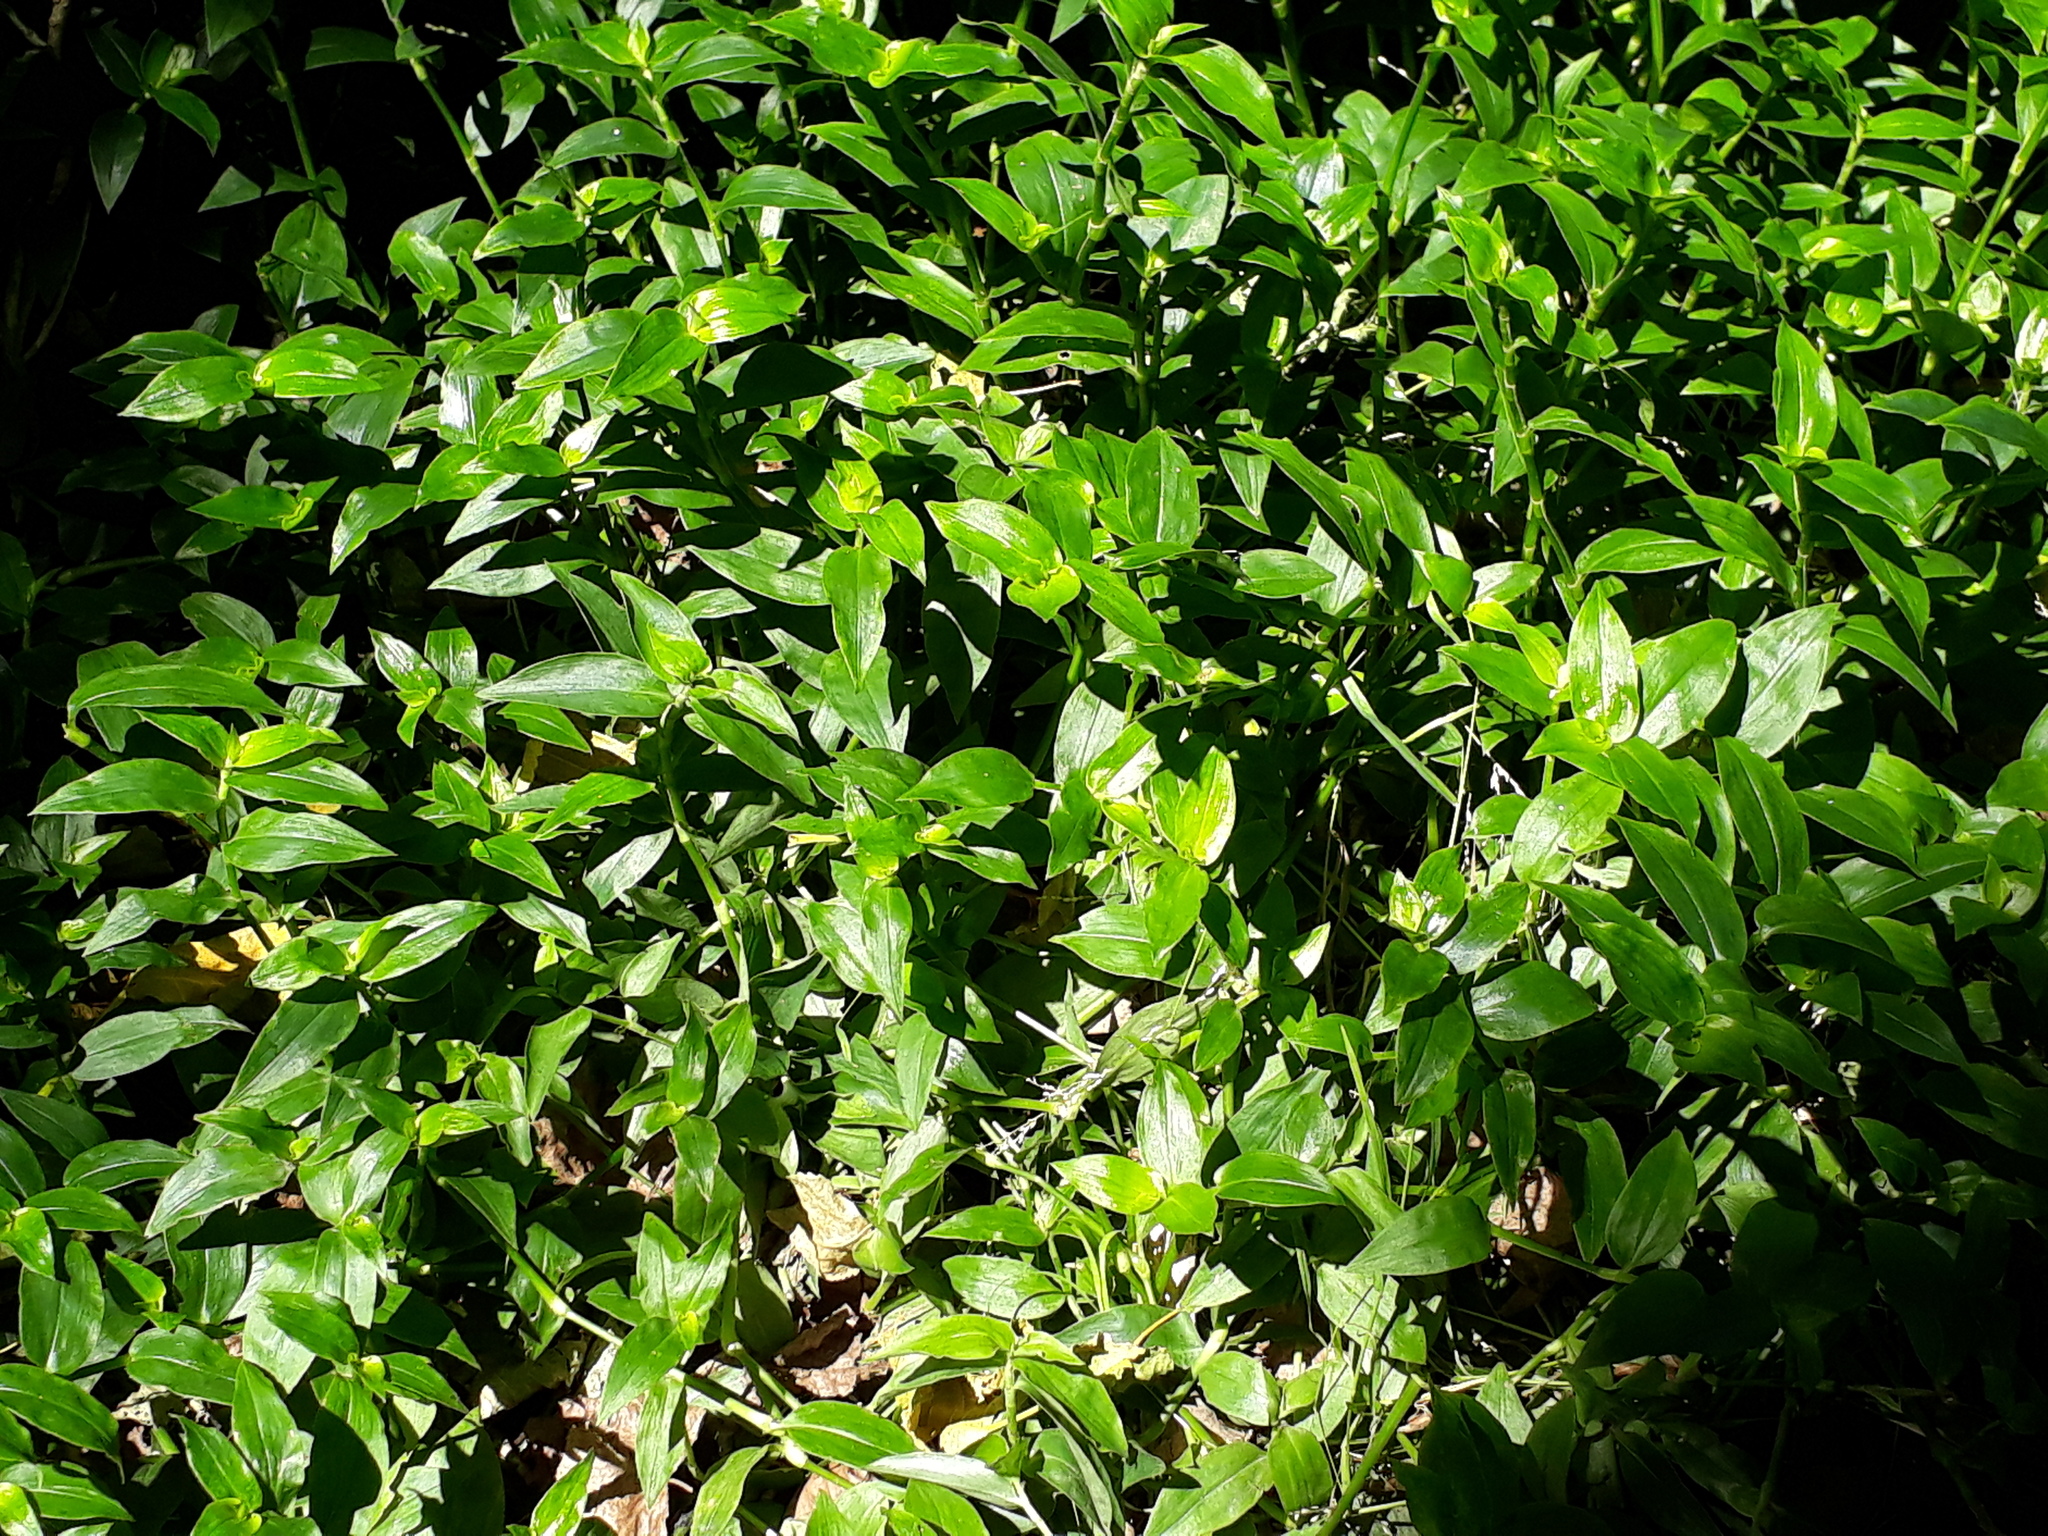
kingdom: Plantae
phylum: Tracheophyta
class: Liliopsida
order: Commelinales
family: Commelinaceae
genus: Tradescantia
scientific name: Tradescantia fluminensis
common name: Wandering-jew
